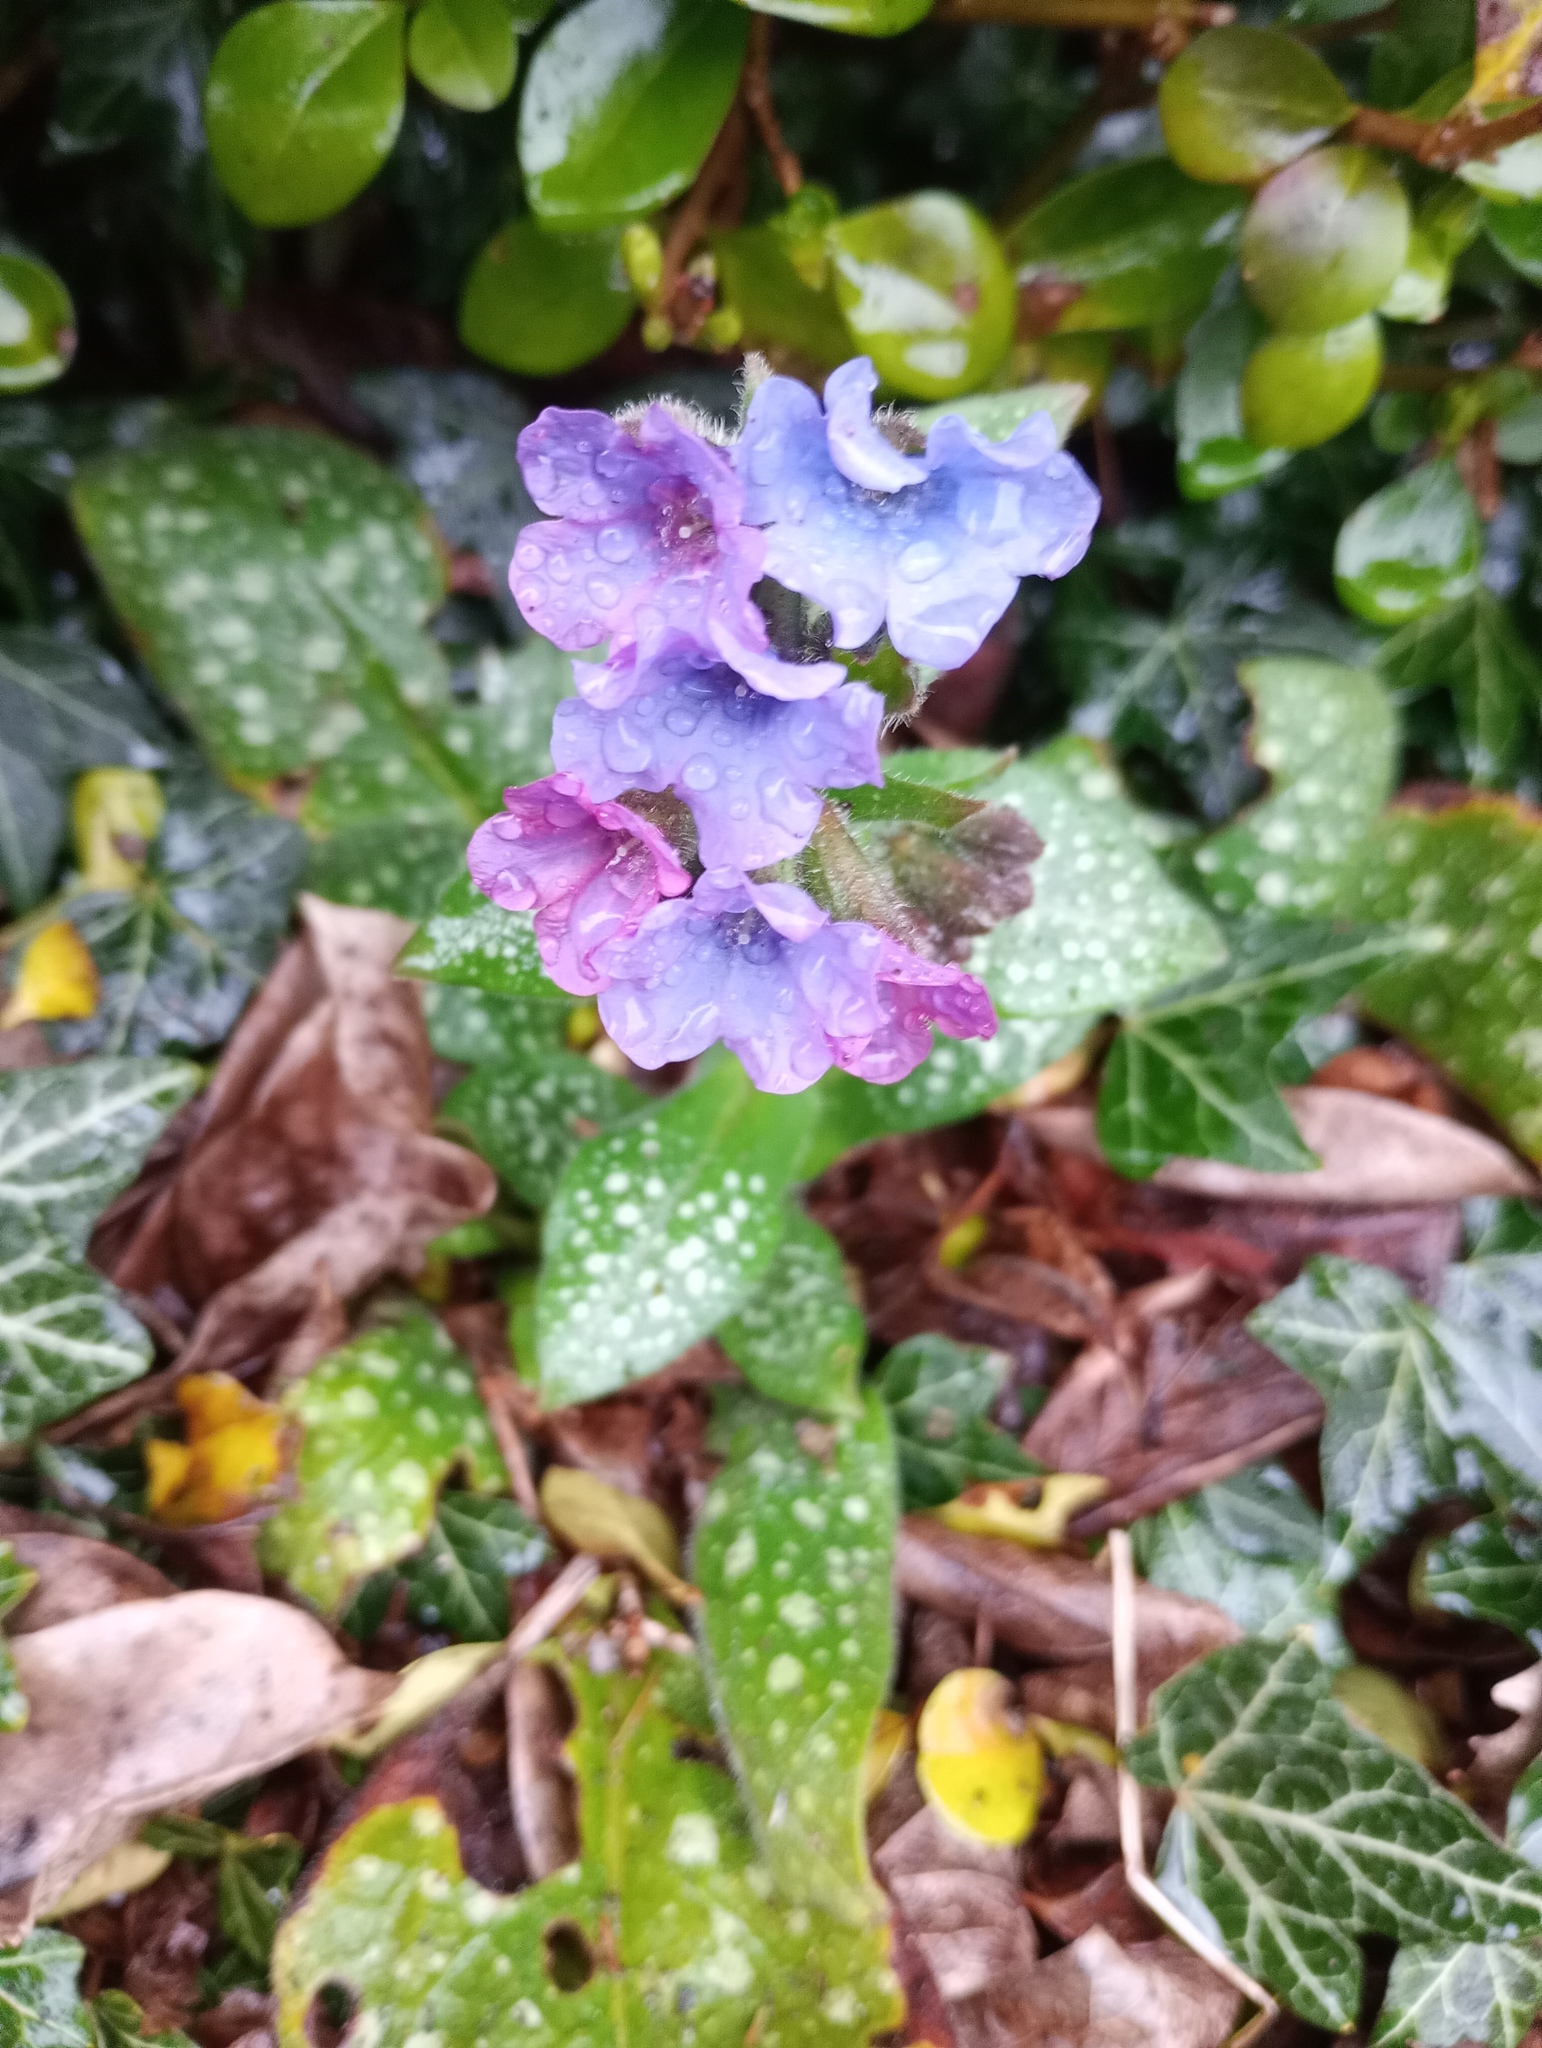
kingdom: Plantae
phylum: Tracheophyta
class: Magnoliopsida
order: Boraginales
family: Boraginaceae
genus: Pulmonaria
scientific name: Pulmonaria officinalis
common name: Lungwort
